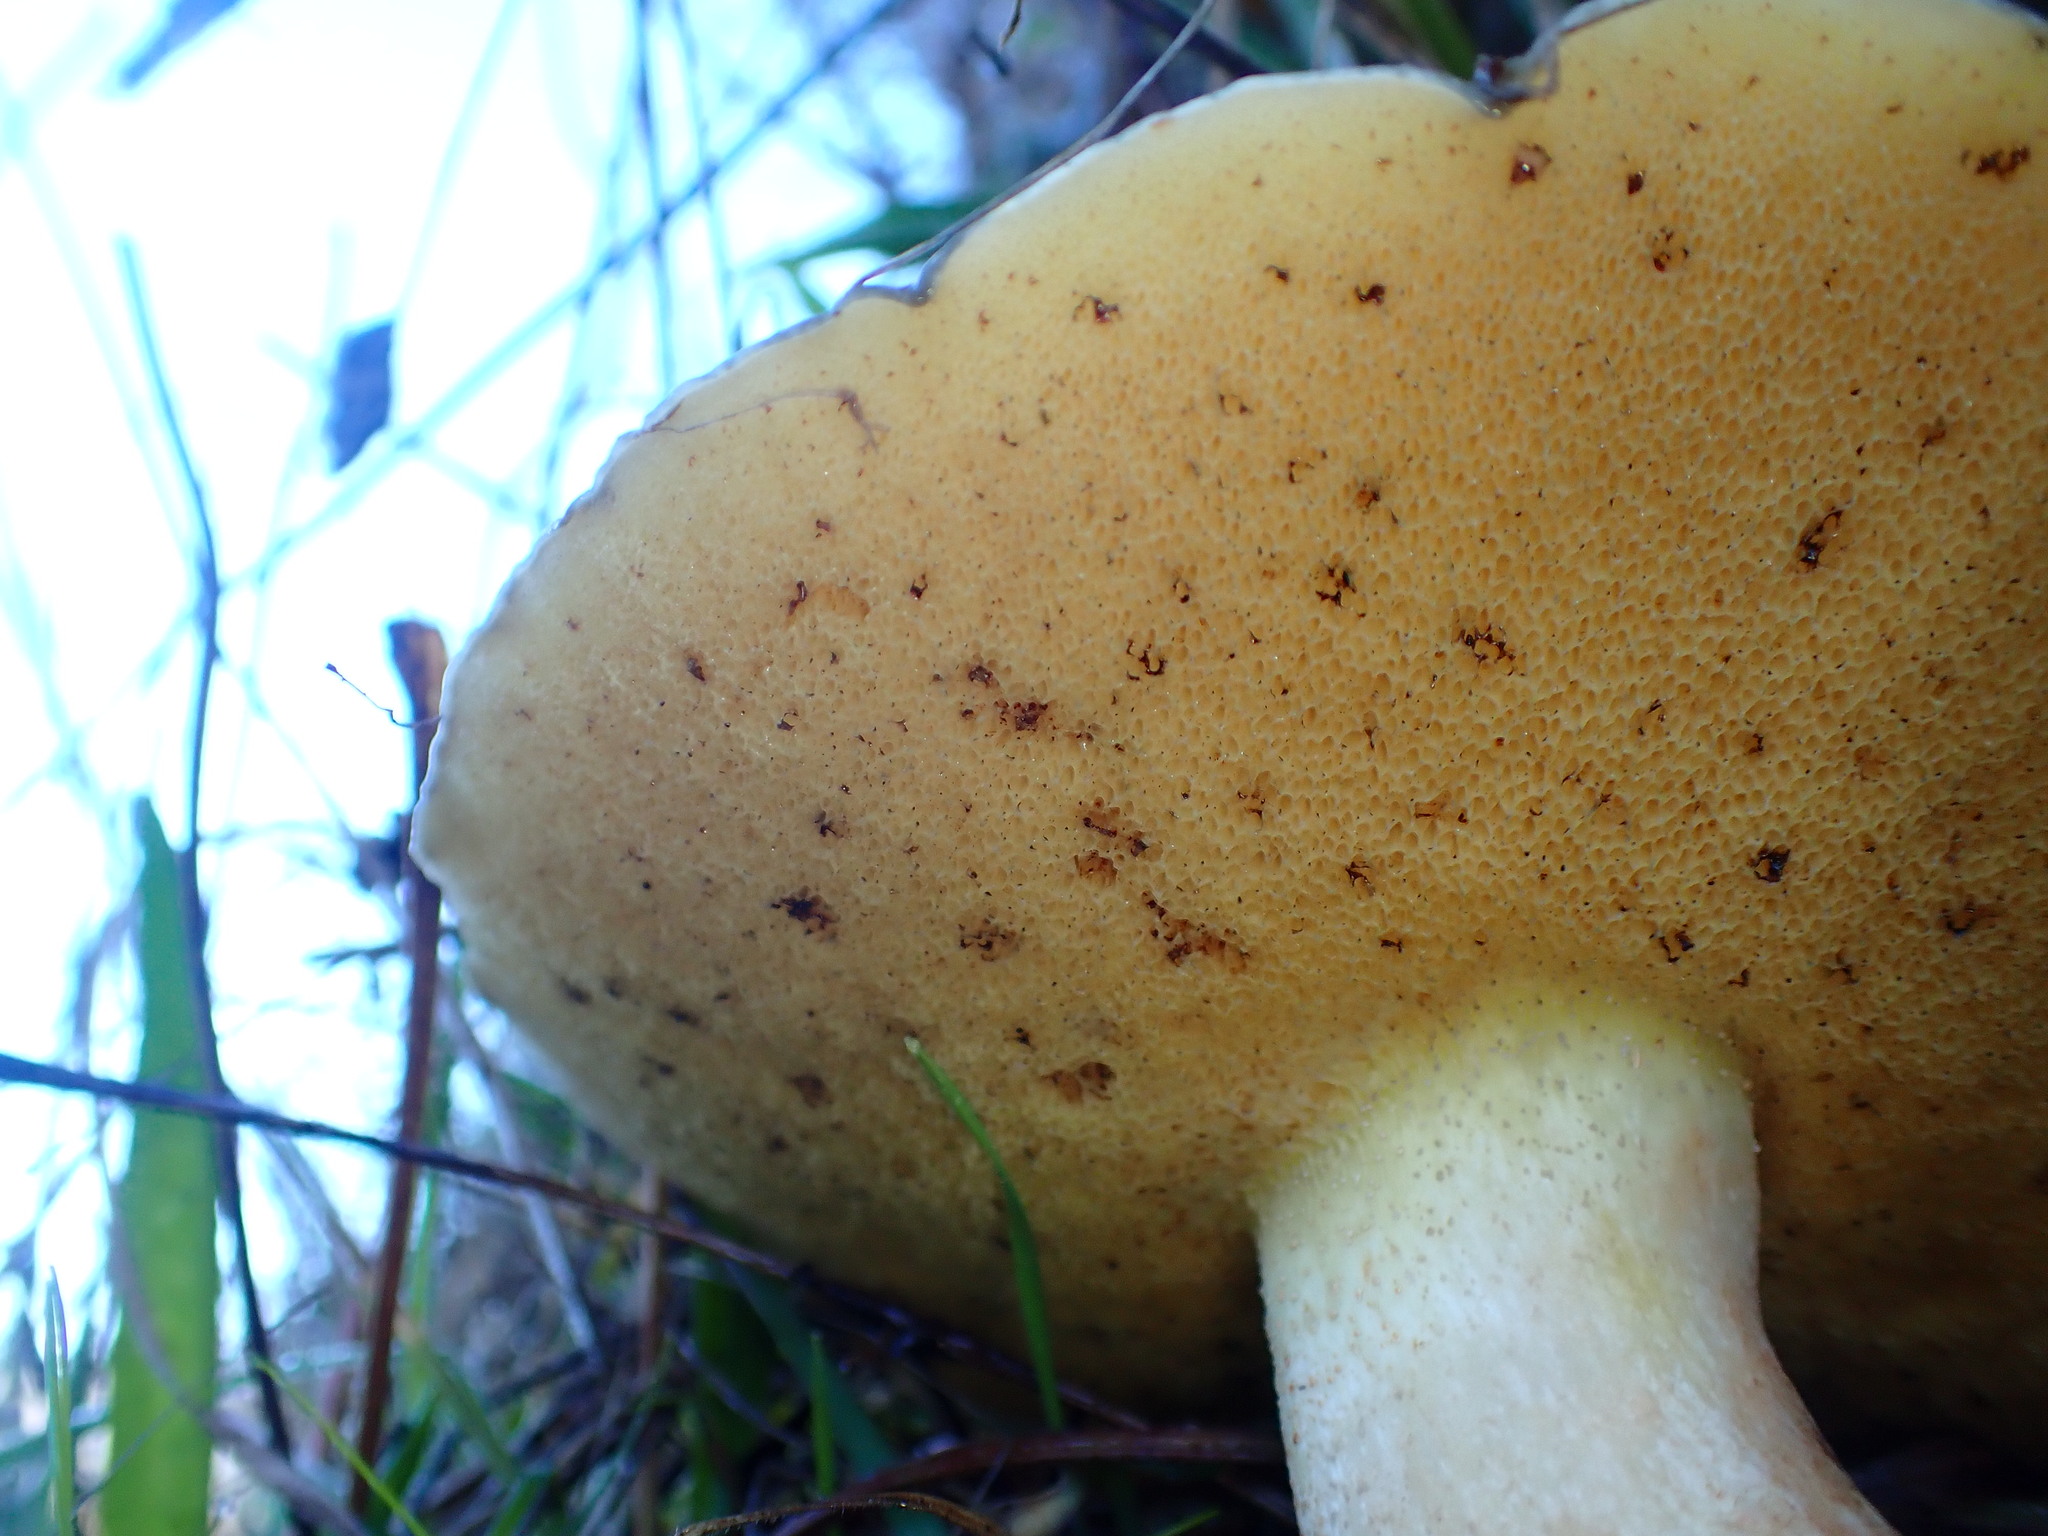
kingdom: Fungi
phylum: Basidiomycota
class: Agaricomycetes
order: Boletales
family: Suillaceae
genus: Suillus
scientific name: Suillus pungens
